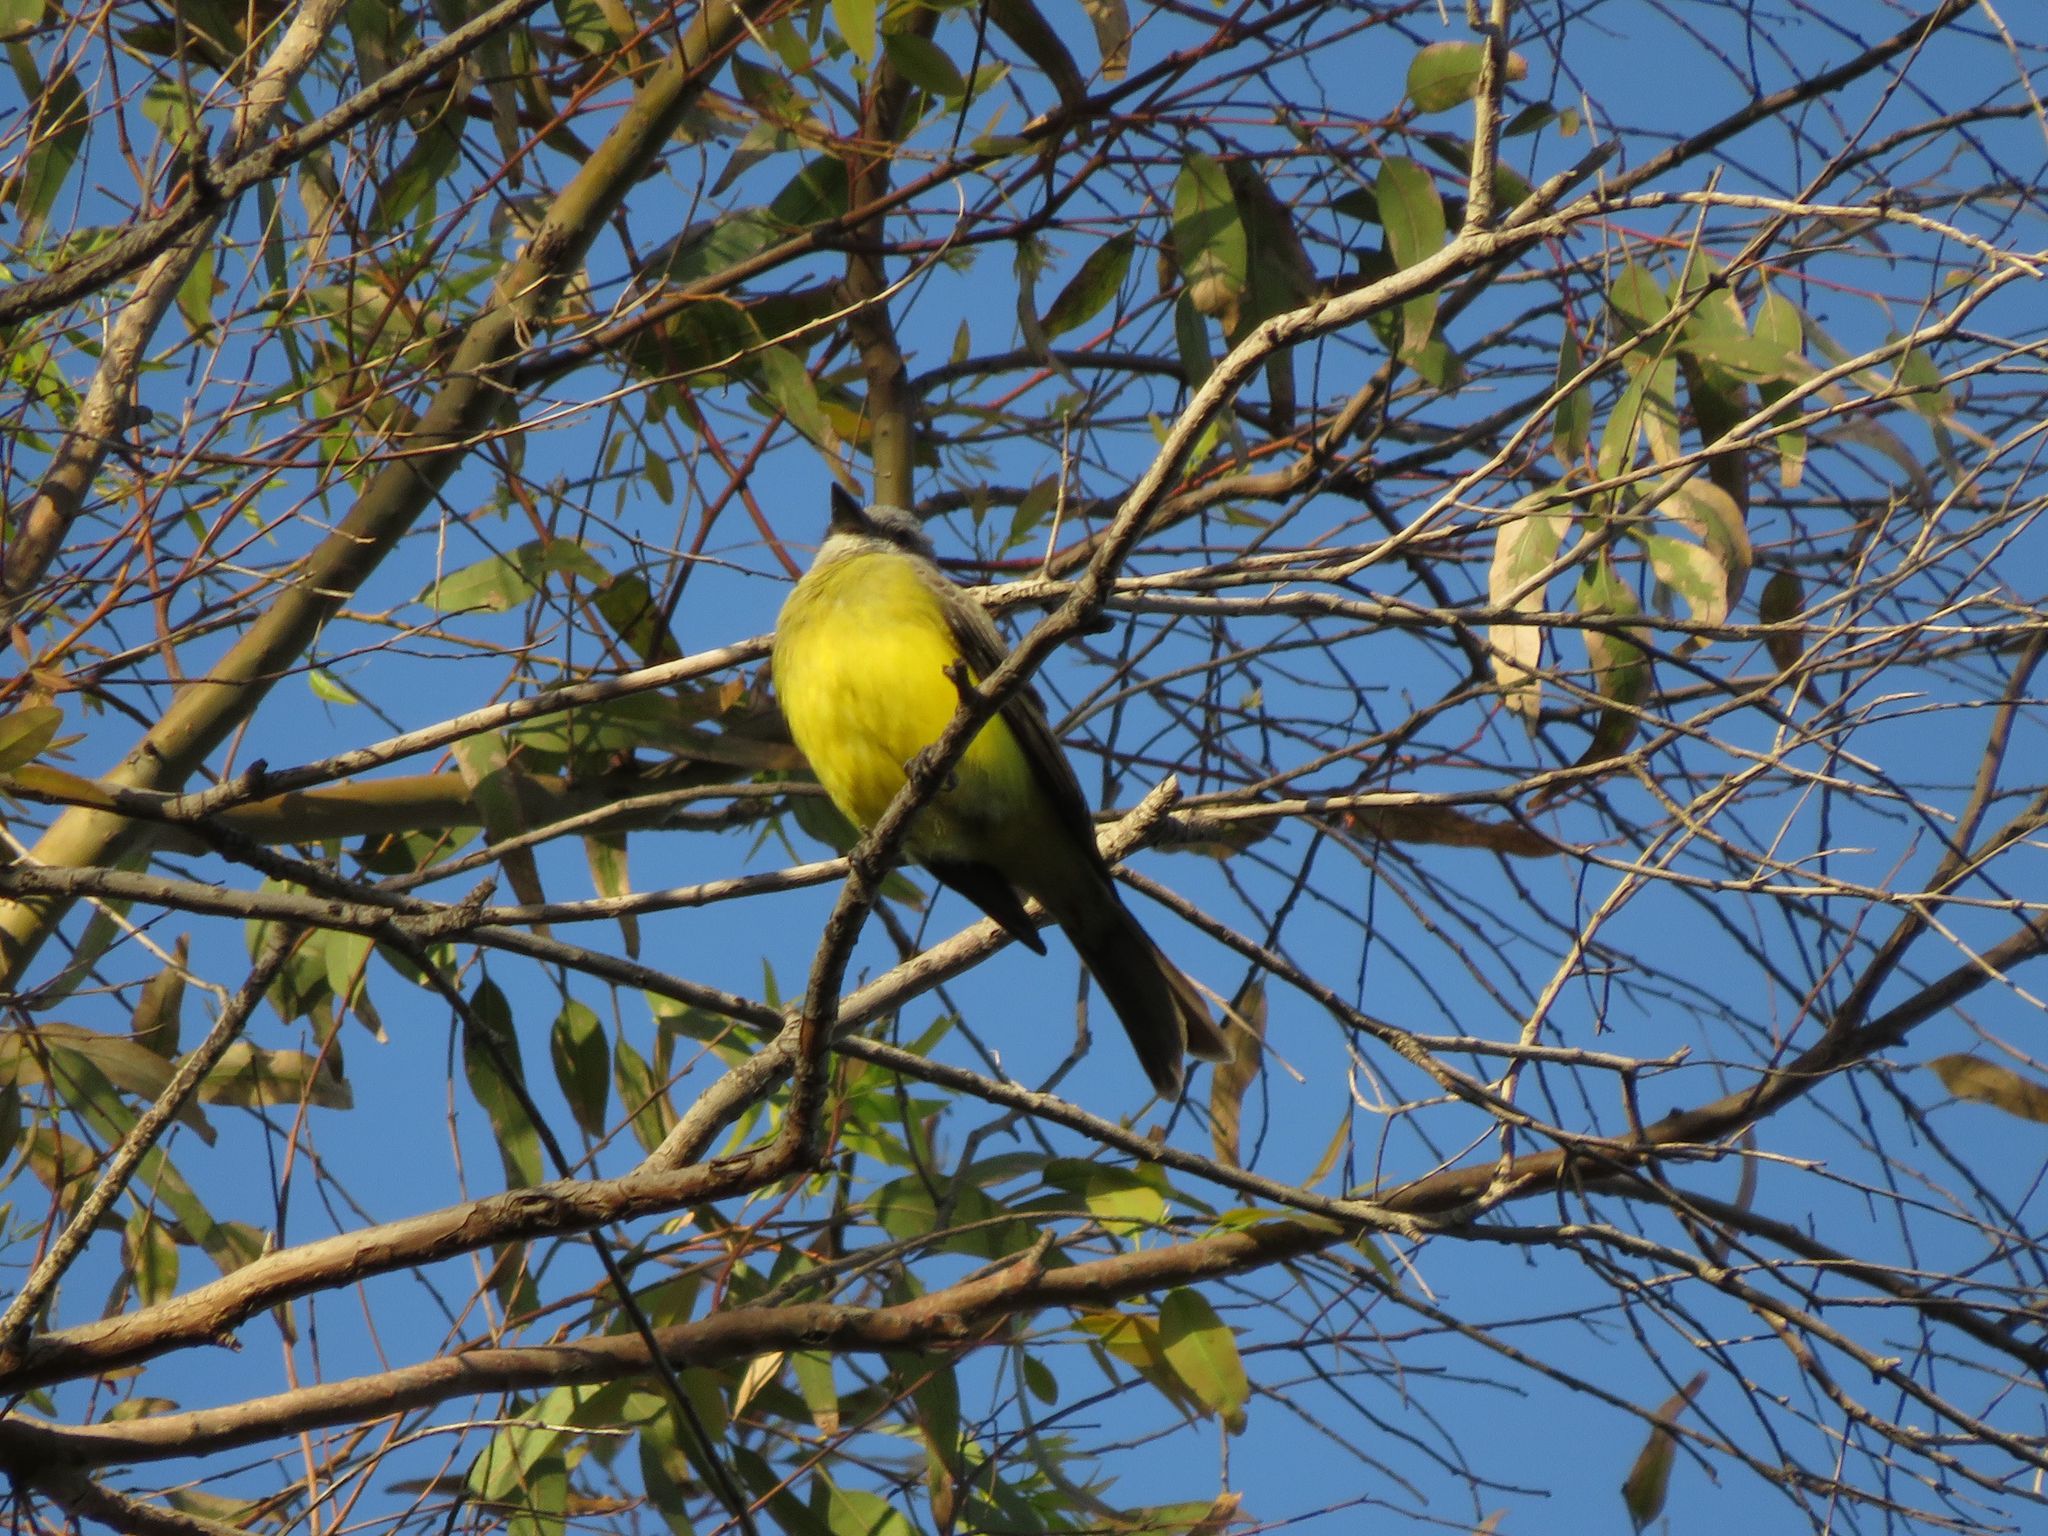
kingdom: Animalia
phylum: Chordata
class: Aves
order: Passeriformes
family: Tyrannidae
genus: Tyrannus
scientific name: Tyrannus melancholicus
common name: Tropical kingbird
